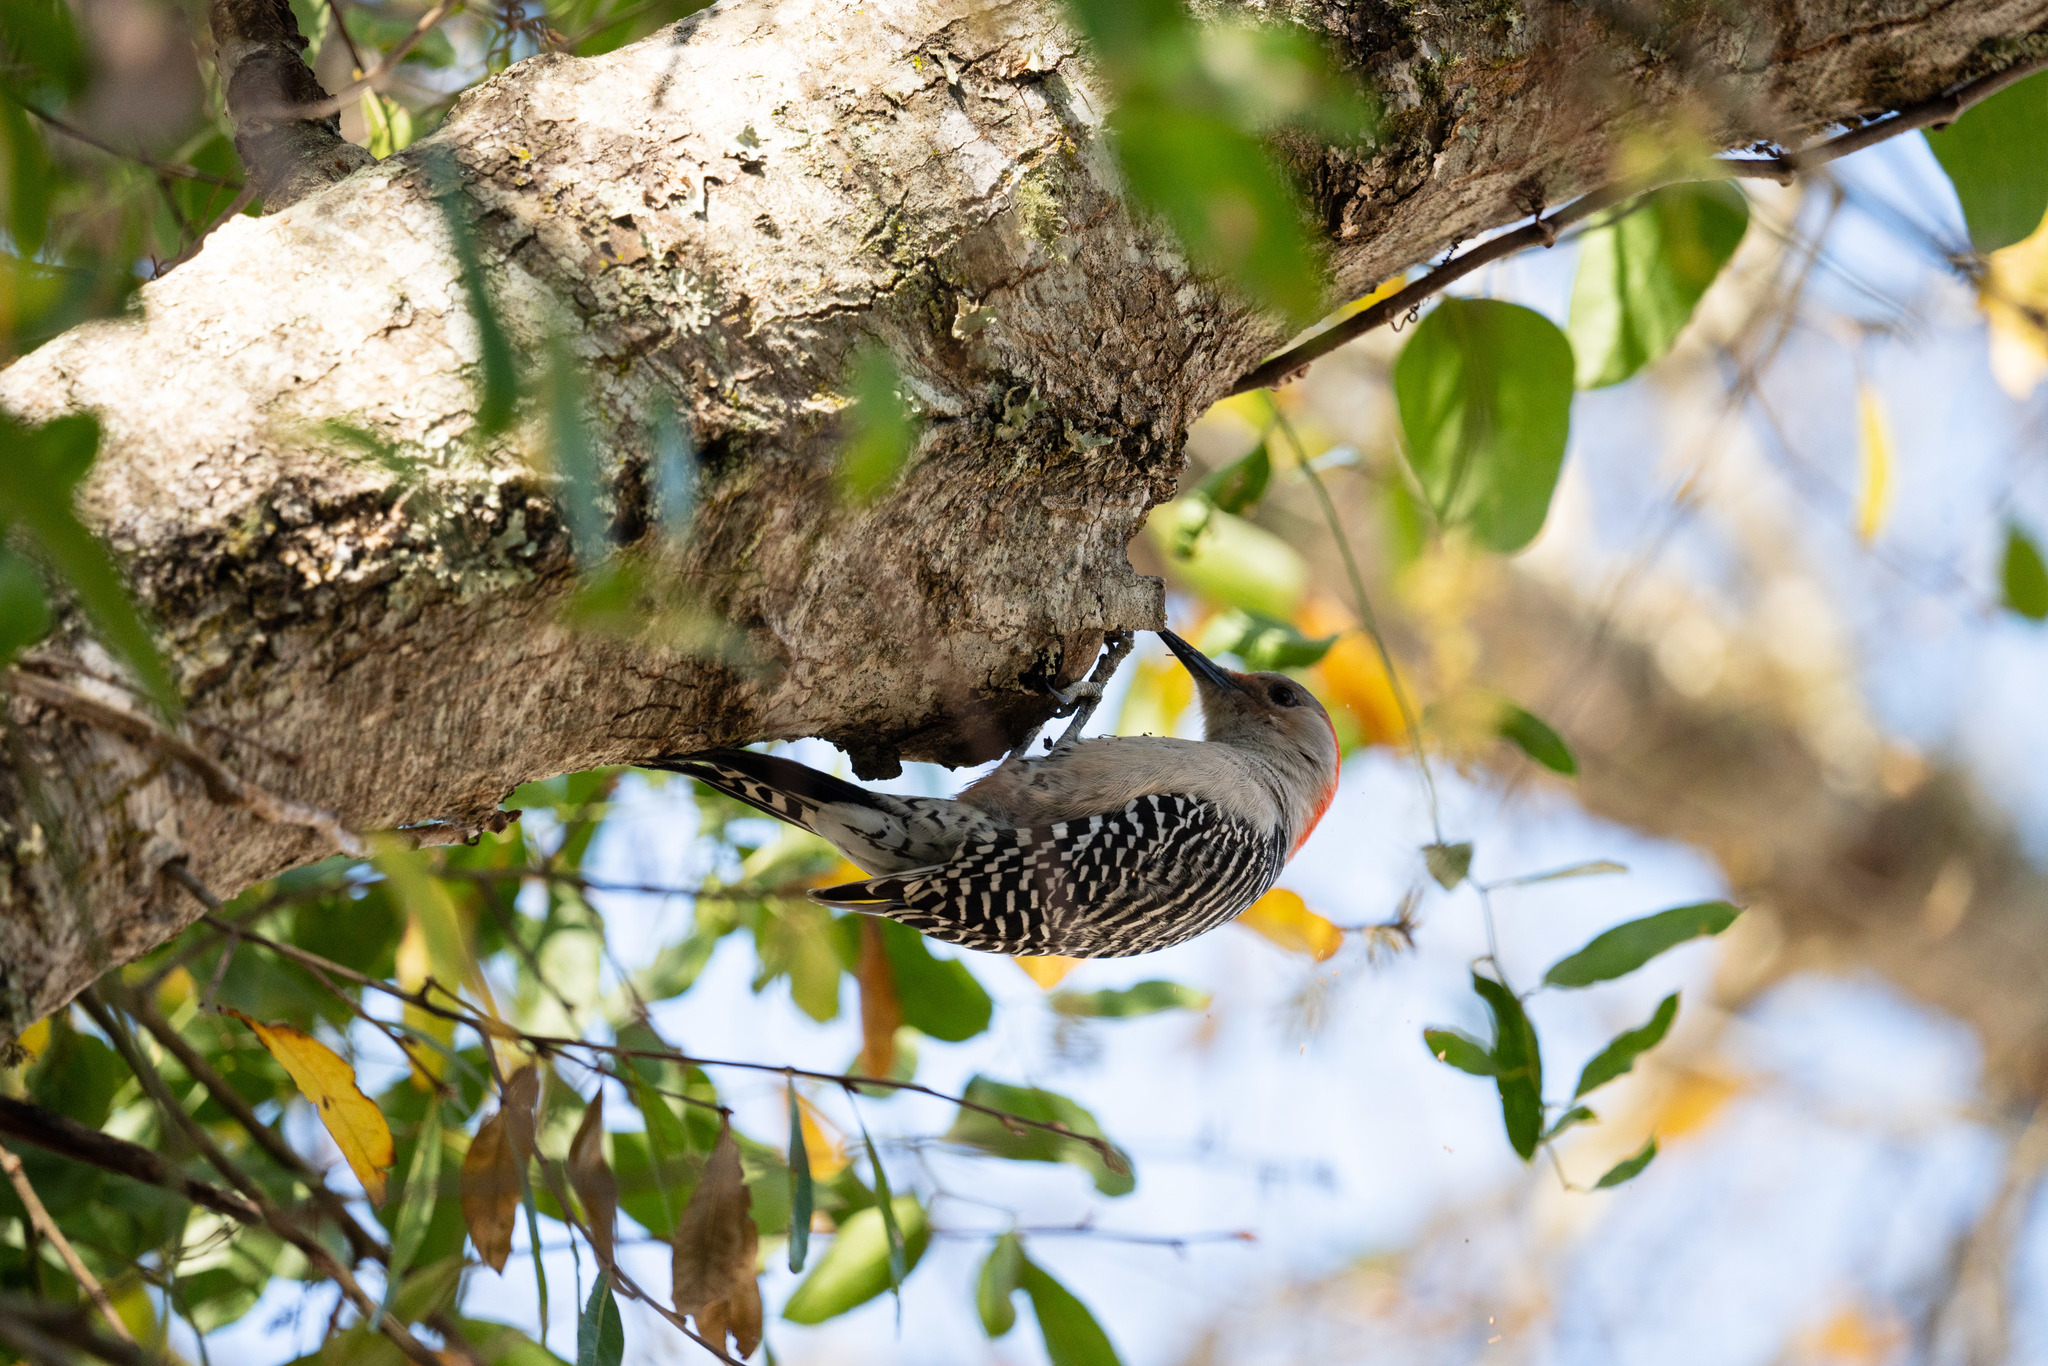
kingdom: Animalia
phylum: Chordata
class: Aves
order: Piciformes
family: Picidae
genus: Melanerpes
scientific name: Melanerpes carolinus
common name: Red-bellied woodpecker
